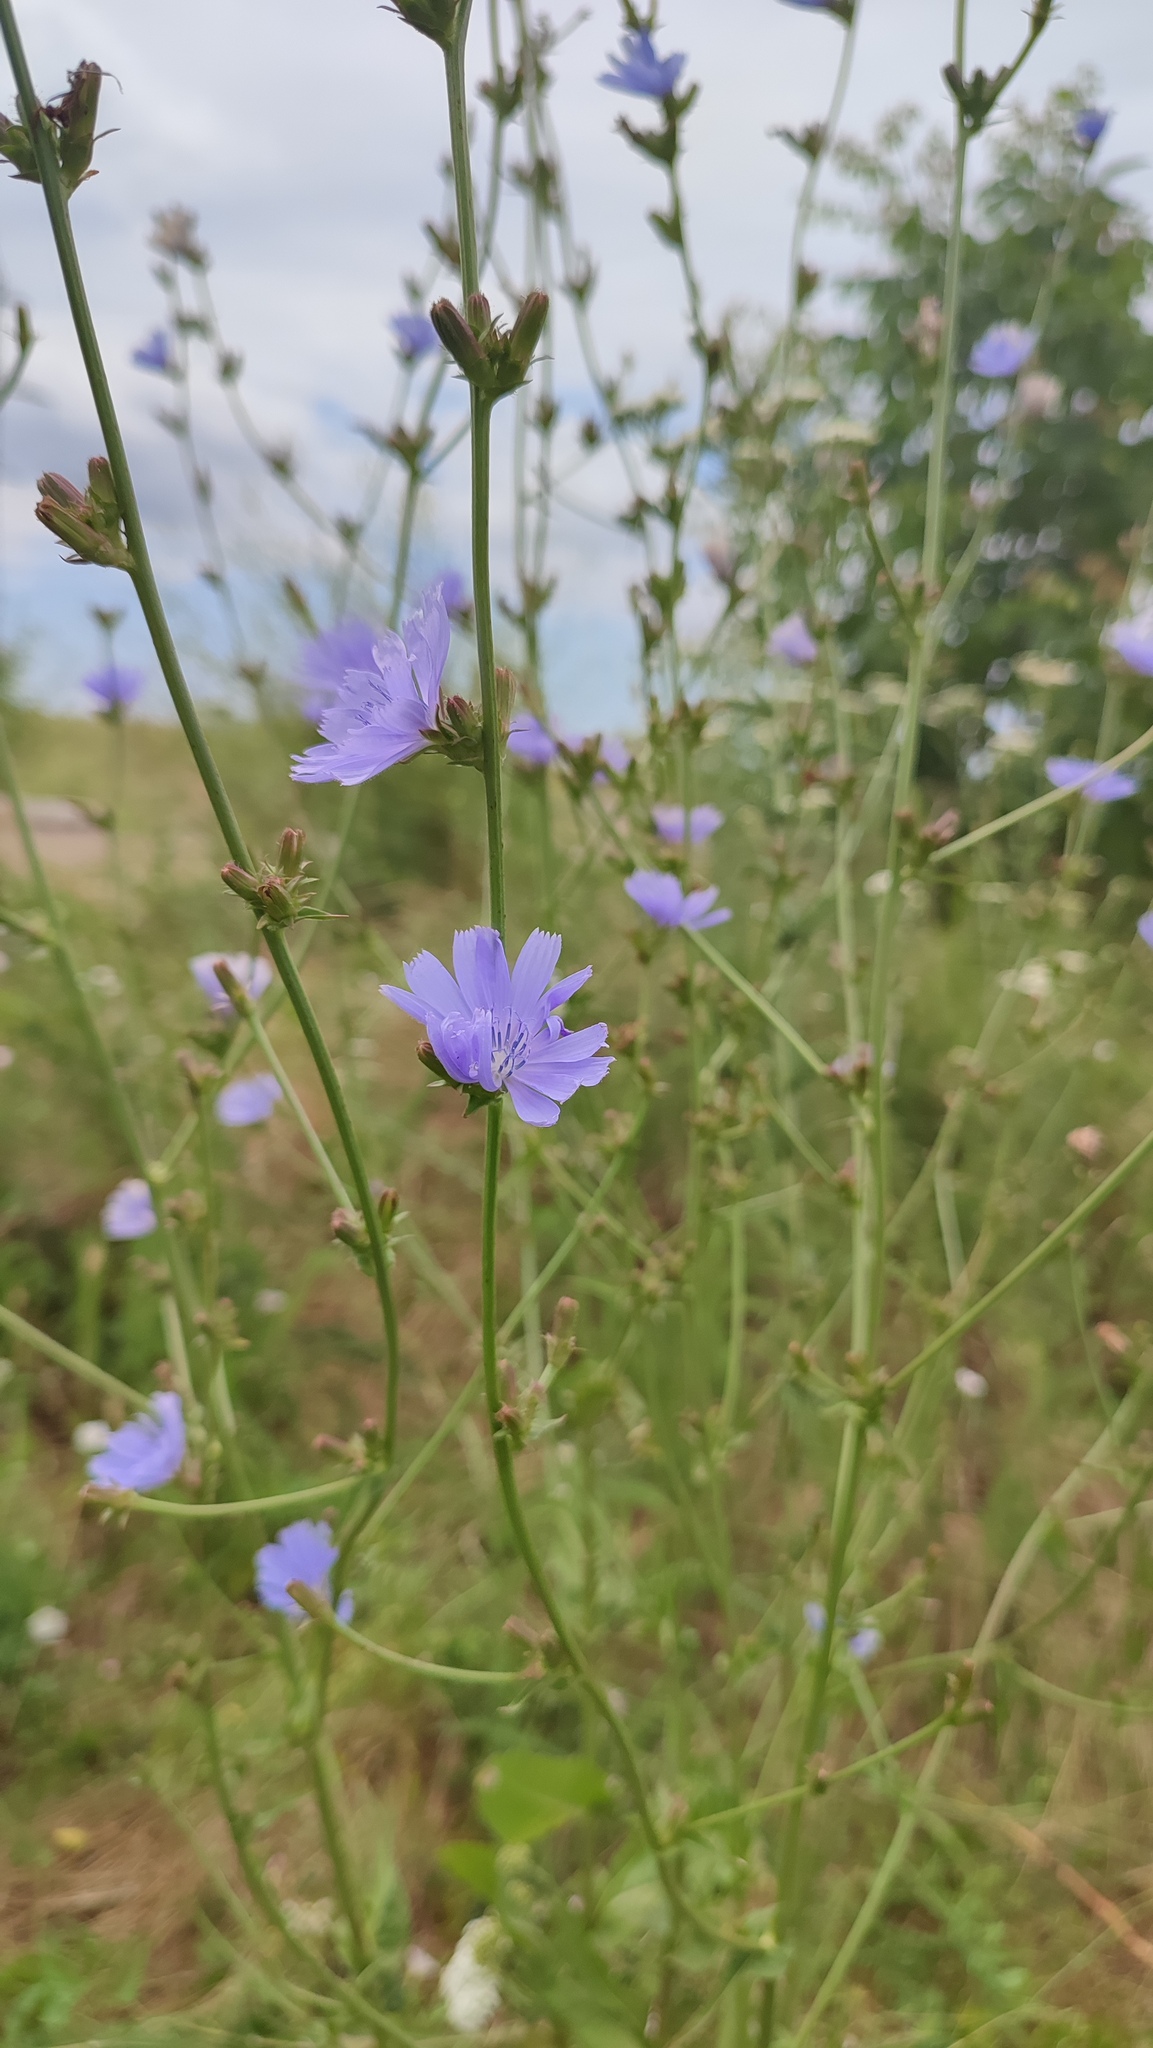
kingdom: Plantae
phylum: Tracheophyta
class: Magnoliopsida
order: Asterales
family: Asteraceae
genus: Cichorium
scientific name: Cichorium intybus
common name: Chicory
